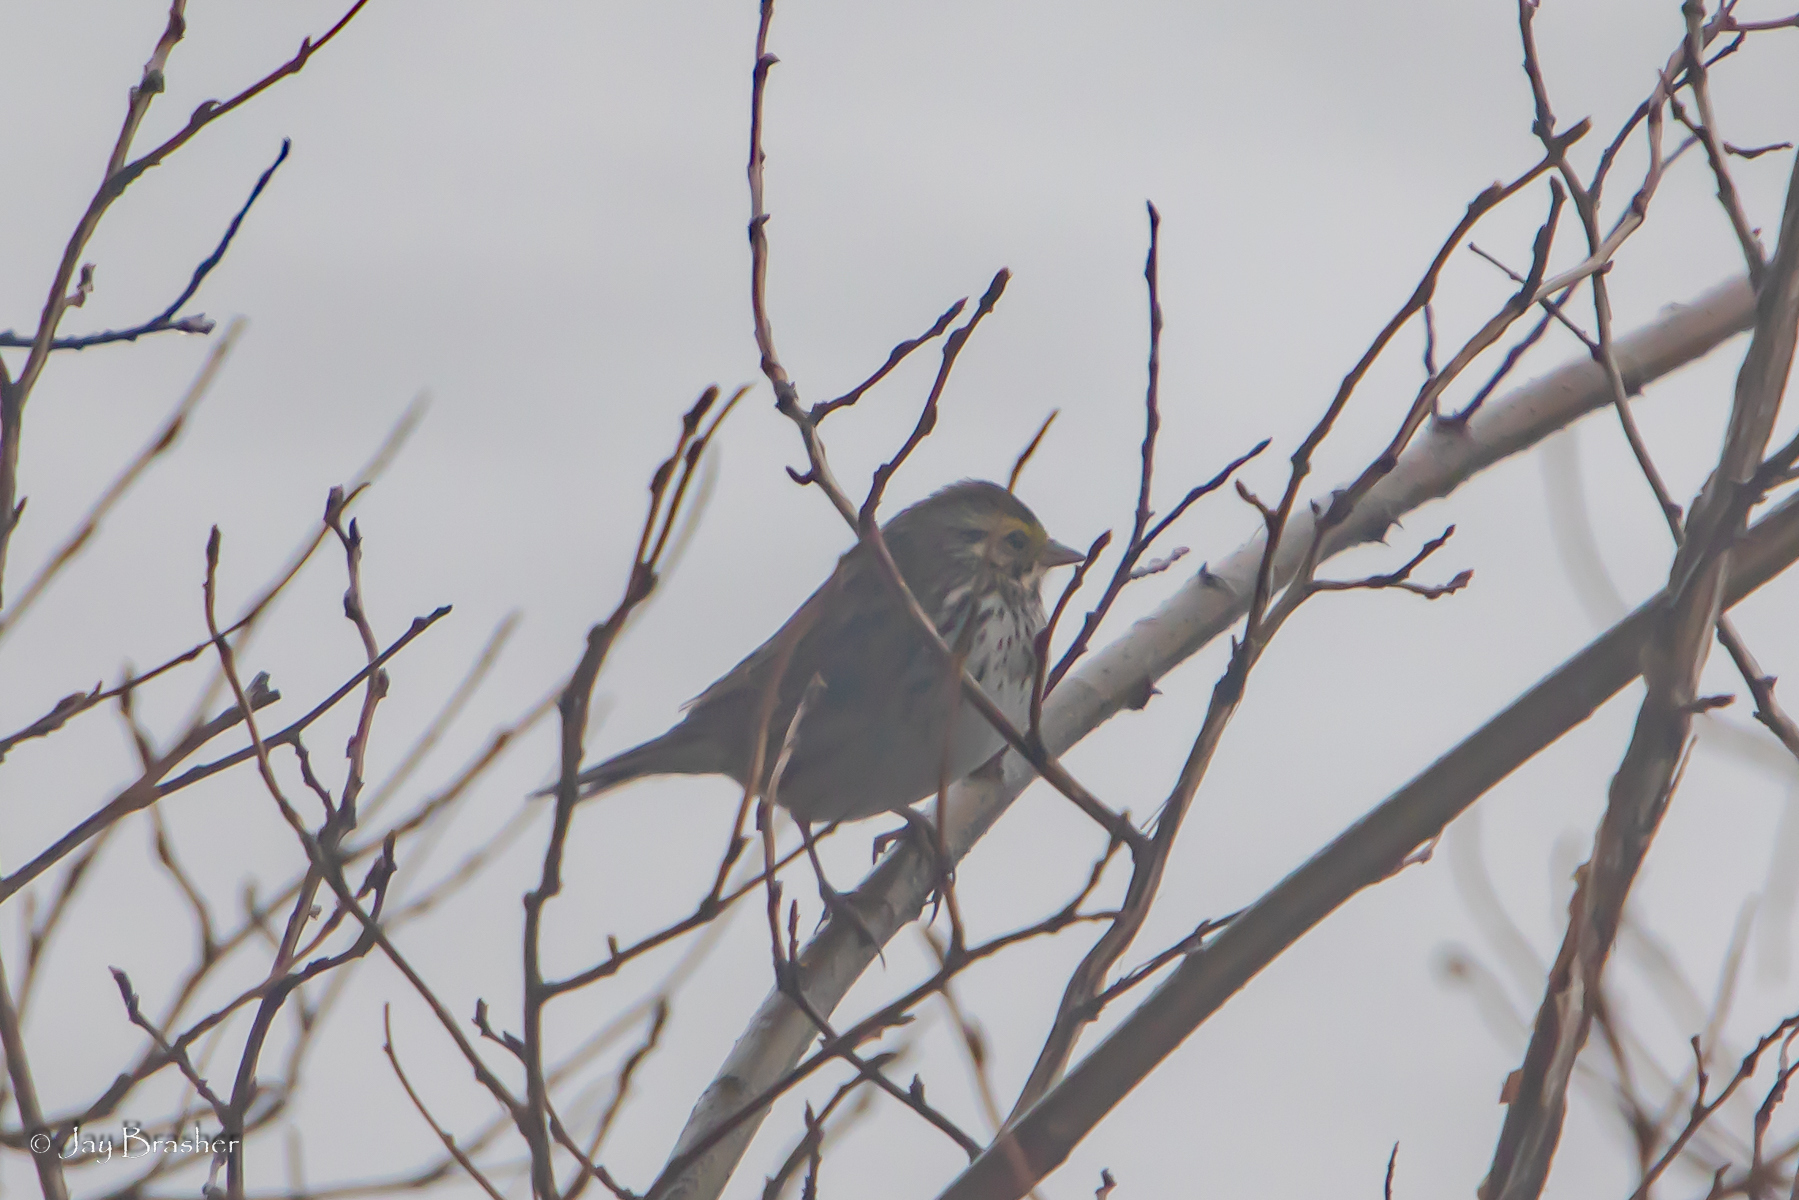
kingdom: Animalia
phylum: Chordata
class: Aves
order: Passeriformes
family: Passerellidae
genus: Passerculus
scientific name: Passerculus sandwichensis
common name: Savannah sparrow
